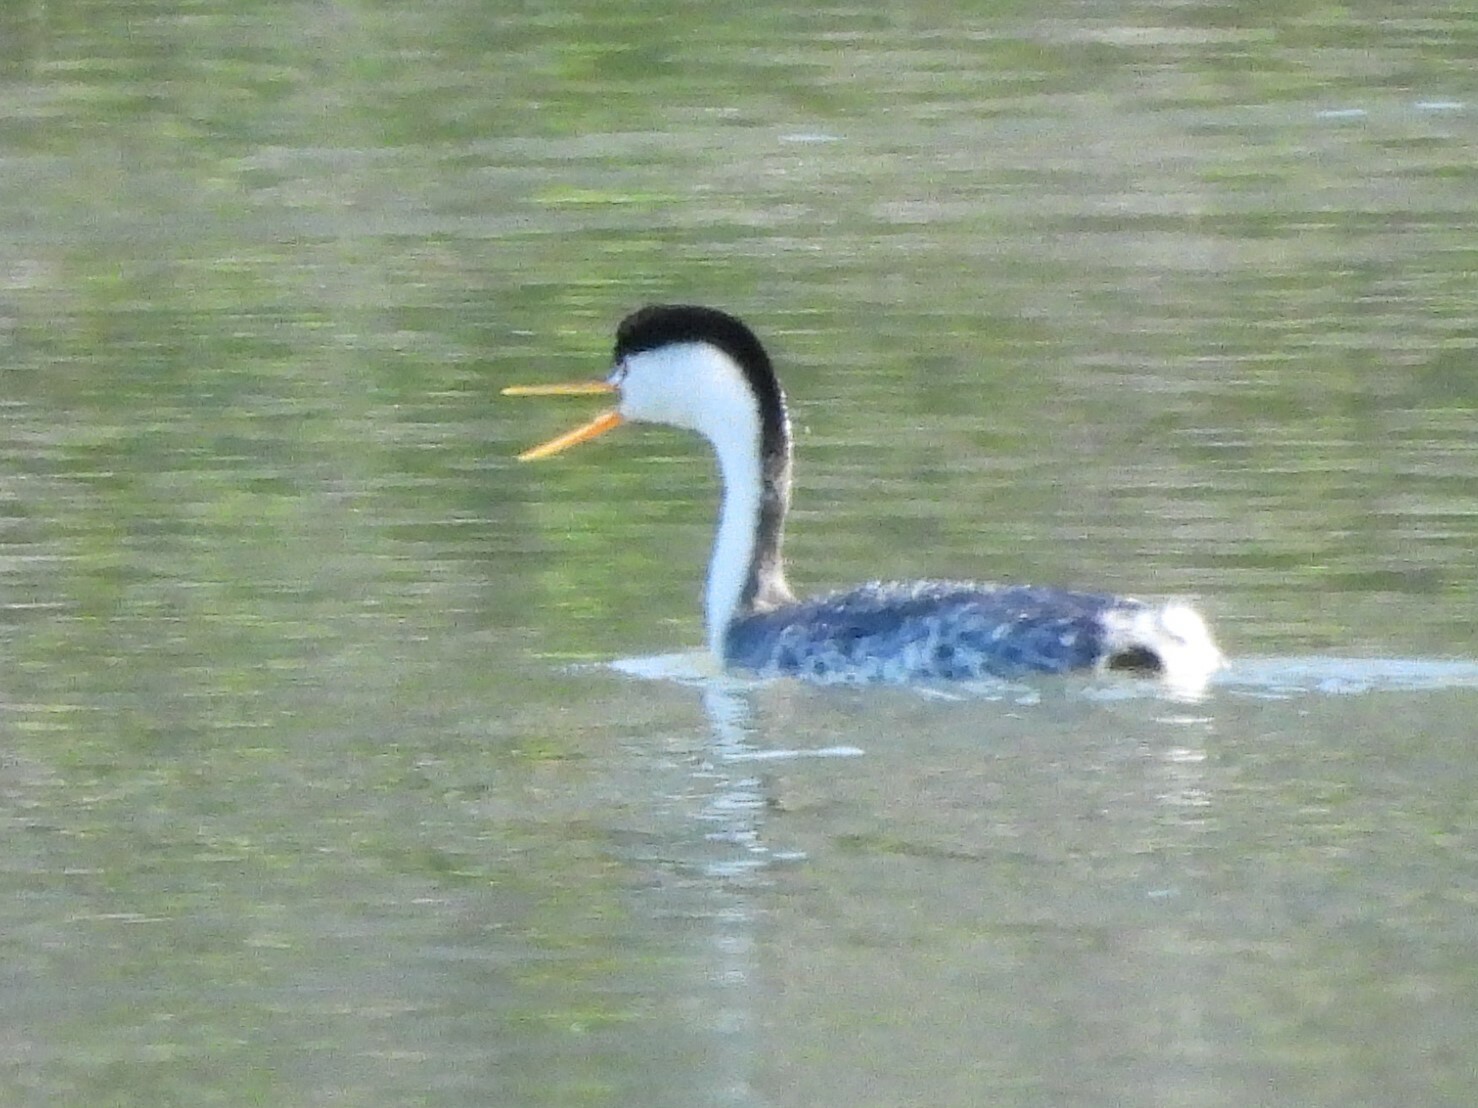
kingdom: Animalia
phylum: Chordata
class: Aves
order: Podicipediformes
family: Podicipedidae
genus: Aechmophorus
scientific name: Aechmophorus clarkii
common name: Clark's grebe
